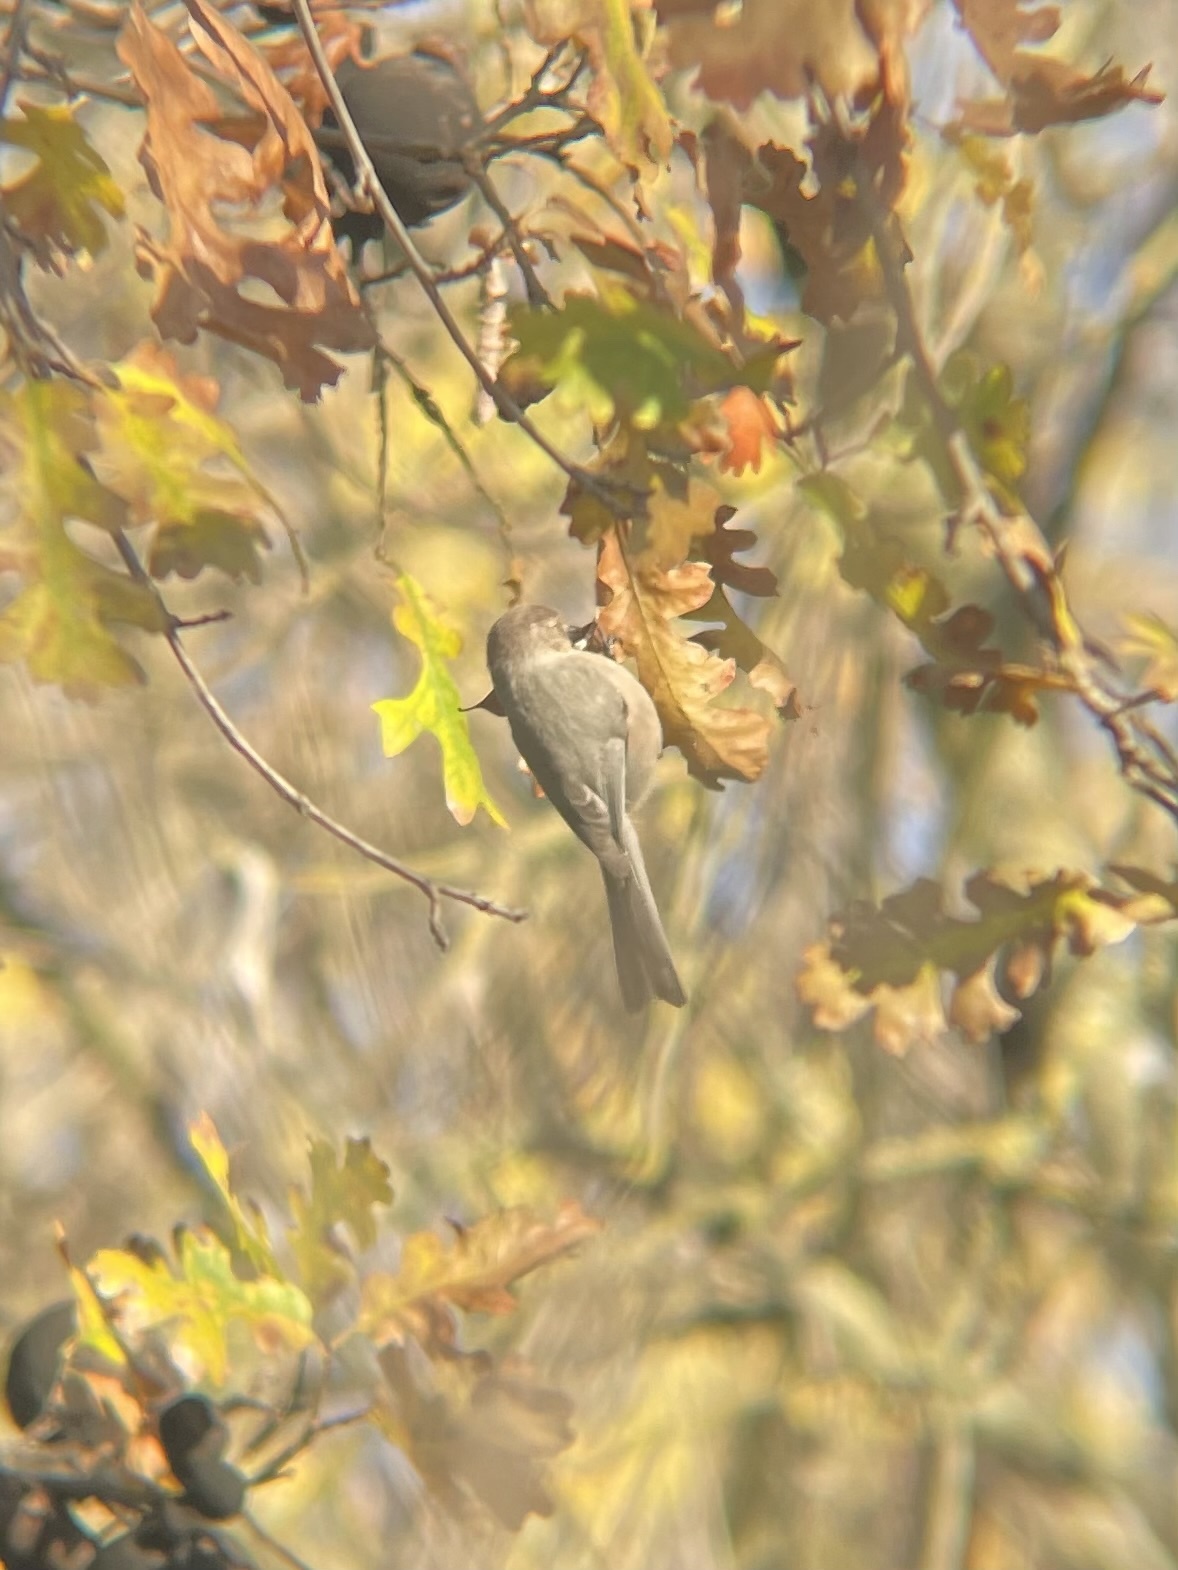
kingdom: Animalia
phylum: Chordata
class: Aves
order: Passeriformes
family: Aegithalidae
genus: Psaltriparus
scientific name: Psaltriparus minimus
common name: American bushtit
